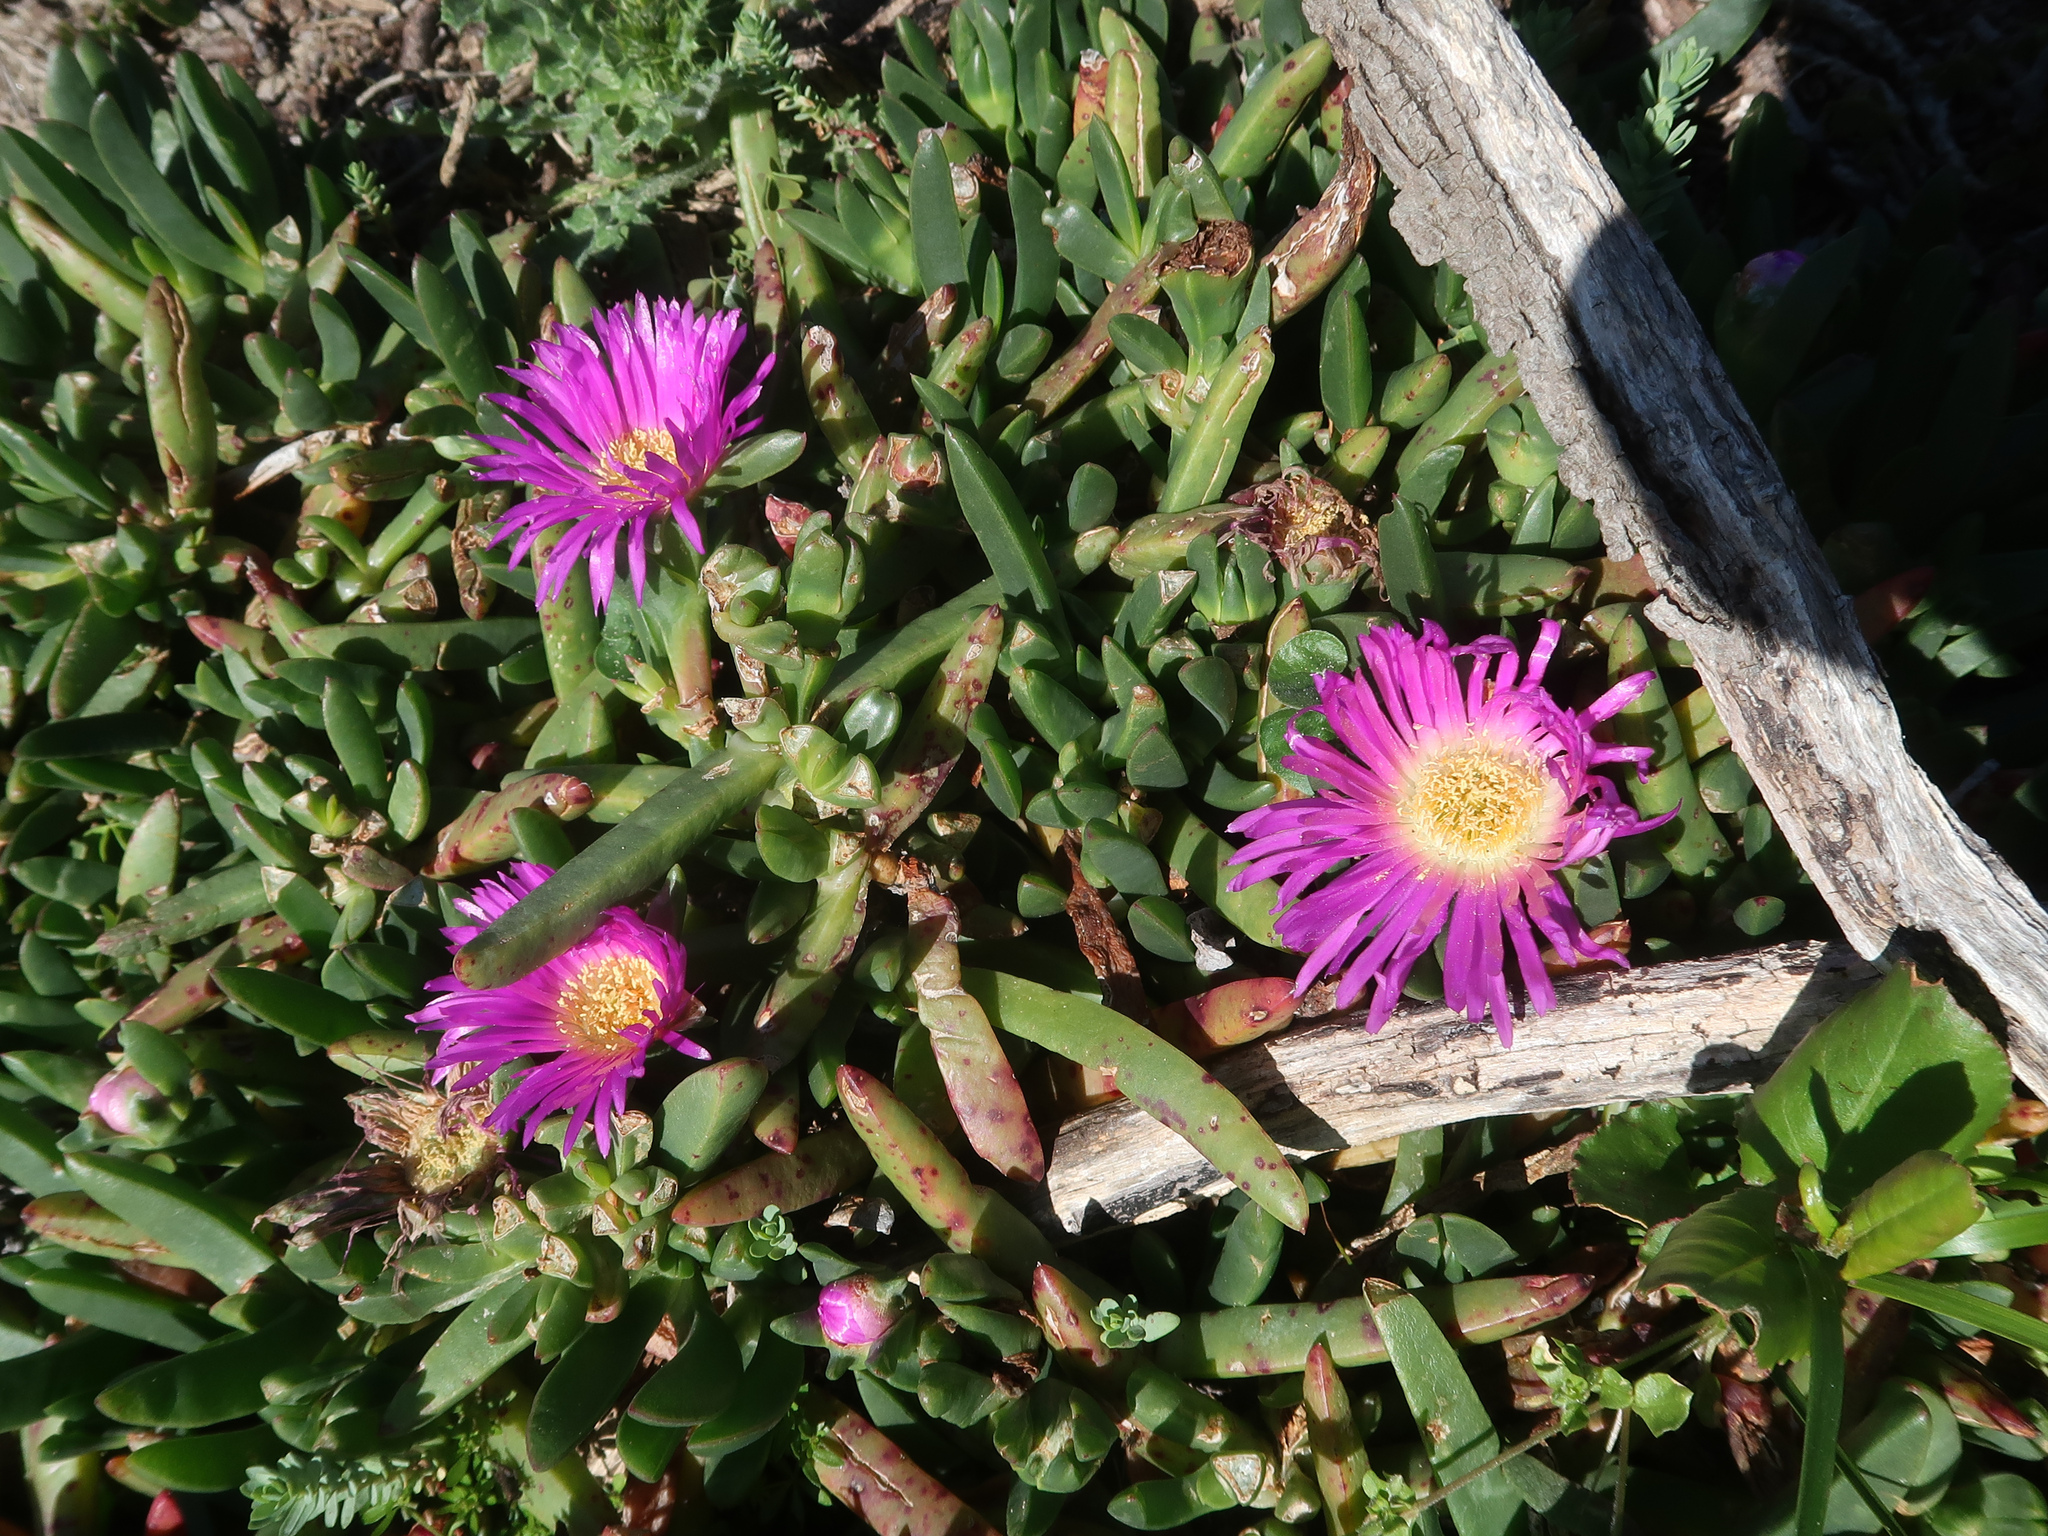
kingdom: Plantae
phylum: Tracheophyta
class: Magnoliopsida
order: Caryophyllales
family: Aizoaceae
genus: Carpobrotus
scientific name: Carpobrotus rossii
